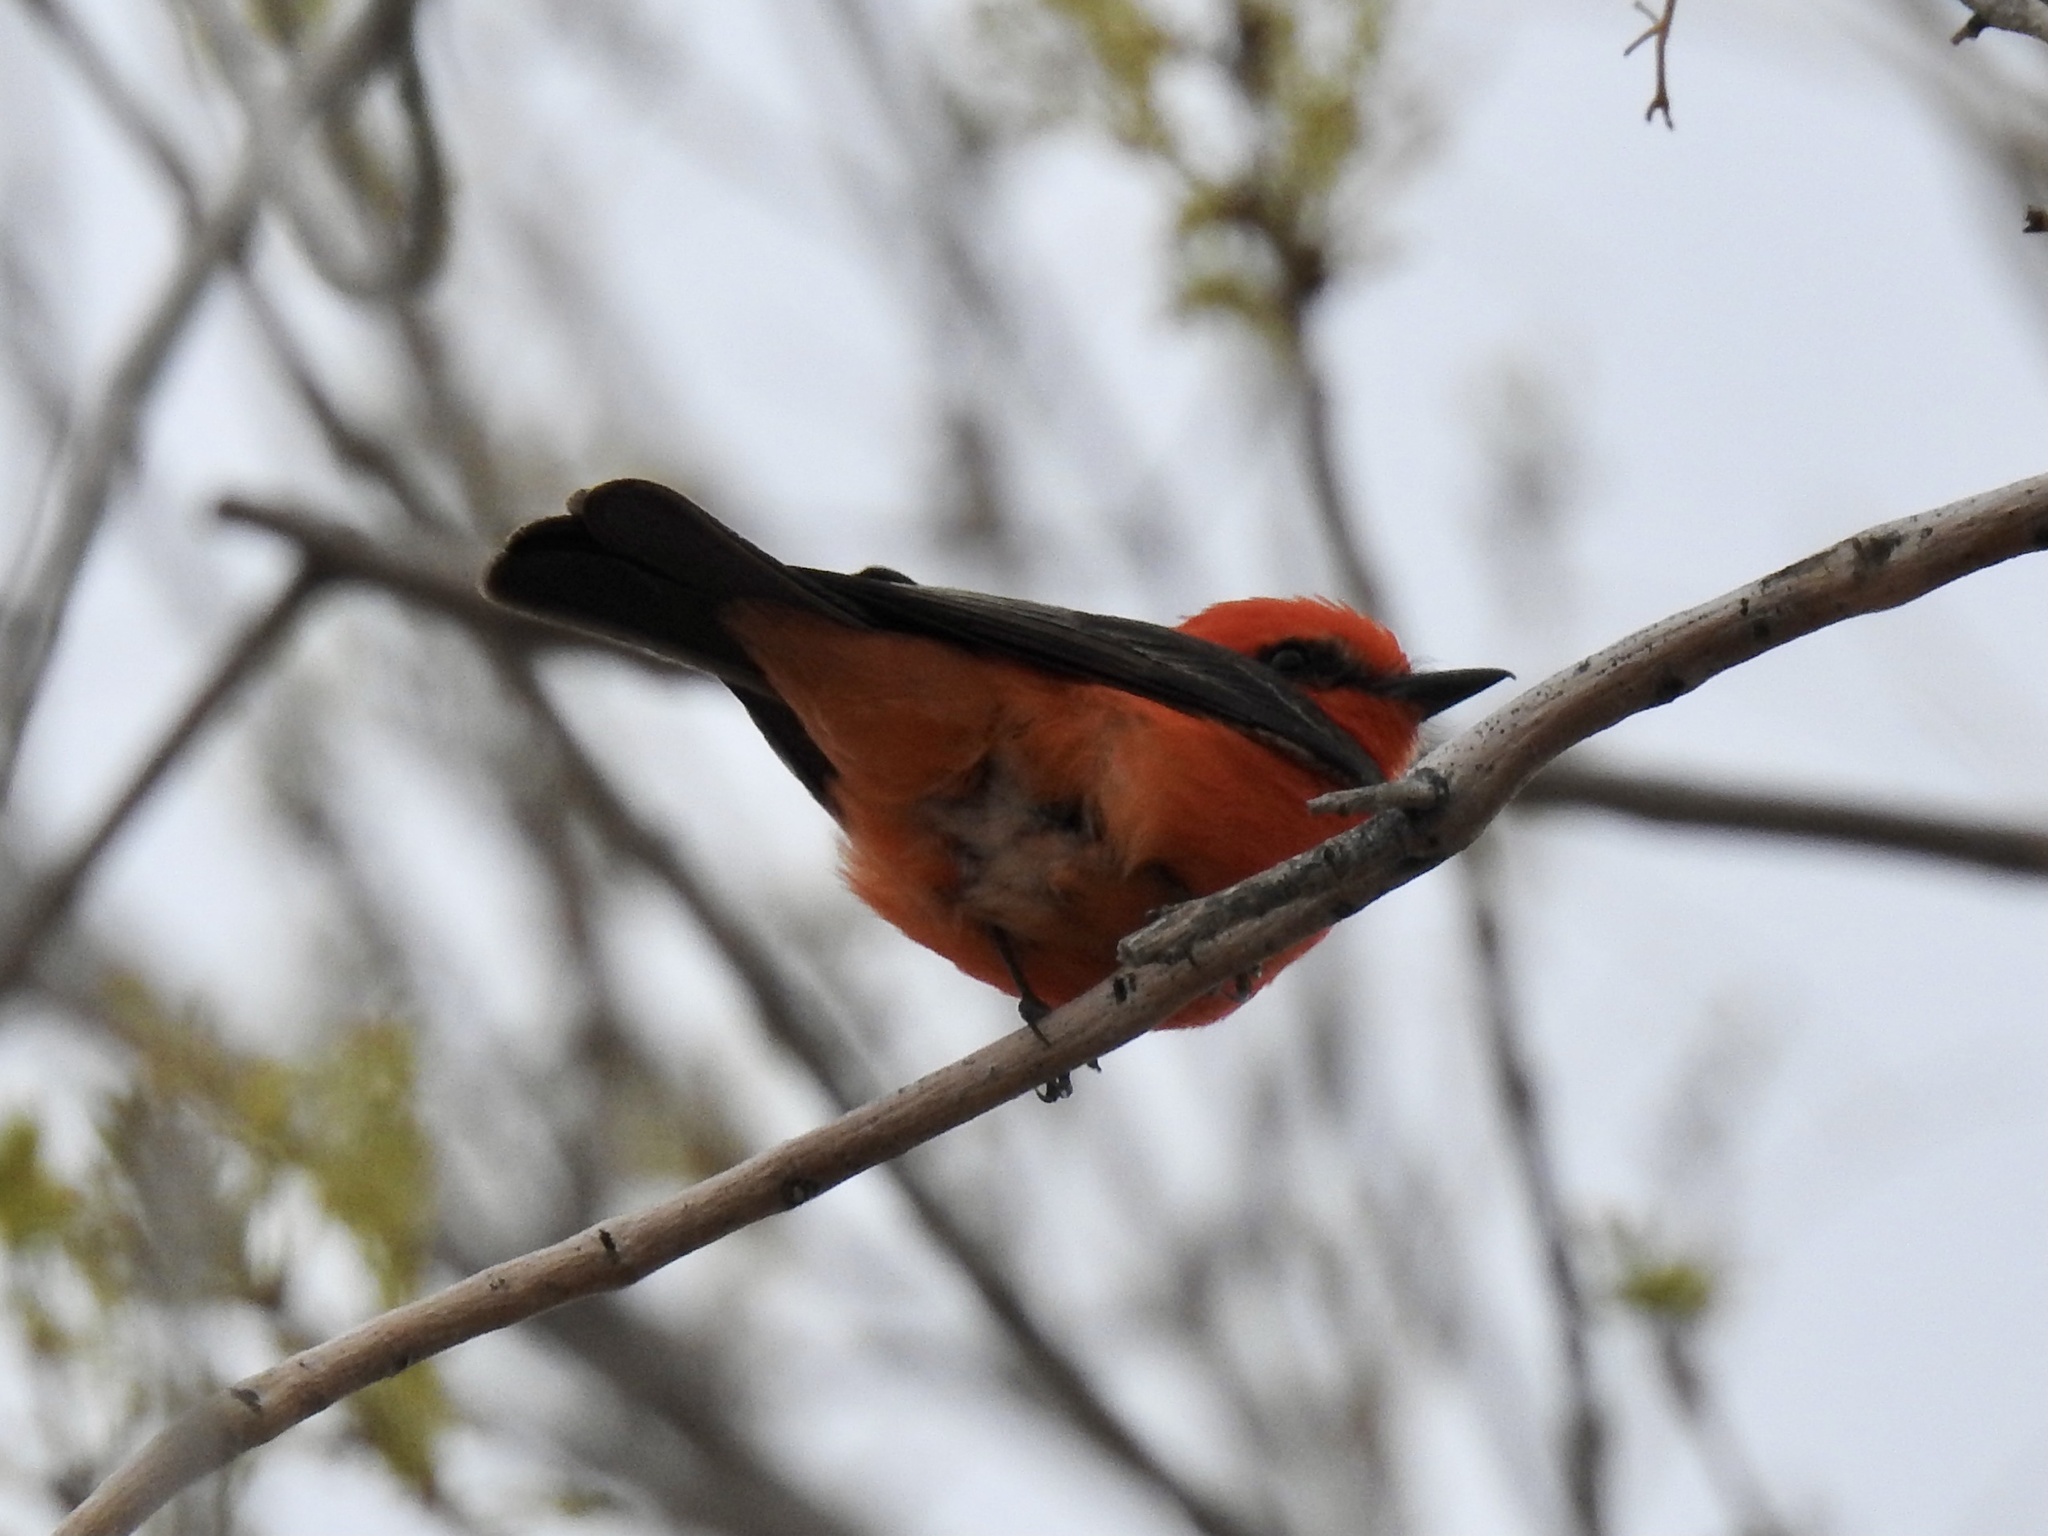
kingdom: Animalia
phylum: Chordata
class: Aves
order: Passeriformes
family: Tyrannidae
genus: Pyrocephalus
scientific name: Pyrocephalus rubinus
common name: Vermilion flycatcher
